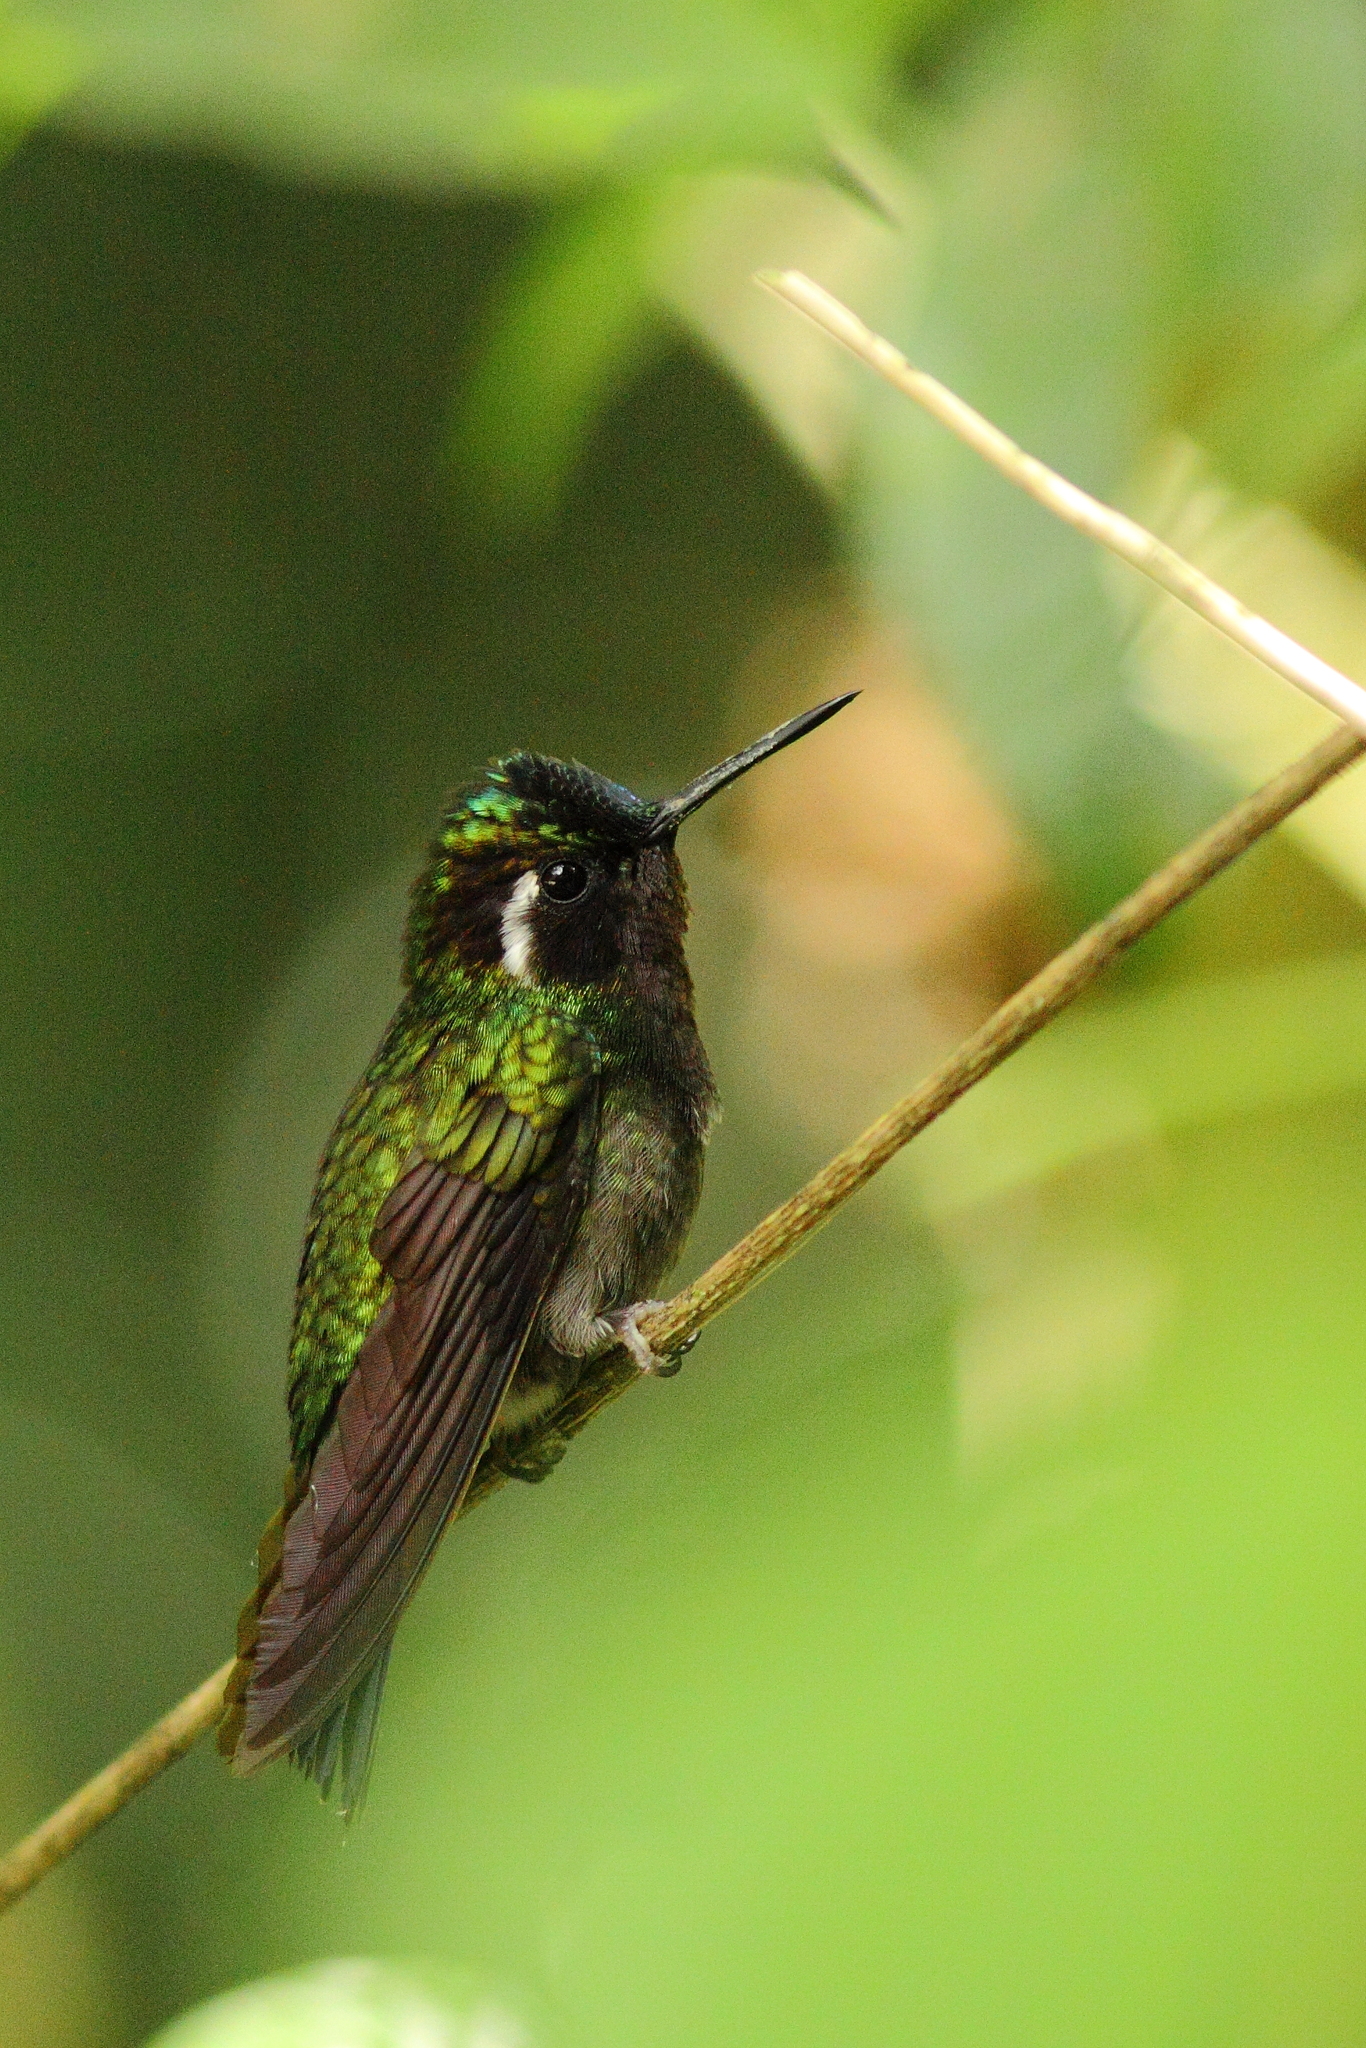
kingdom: Animalia
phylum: Chordata
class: Aves
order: Apodiformes
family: Trochilidae
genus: Lampornis
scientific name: Lampornis calolaemus
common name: Purple-throated mountain-gem
